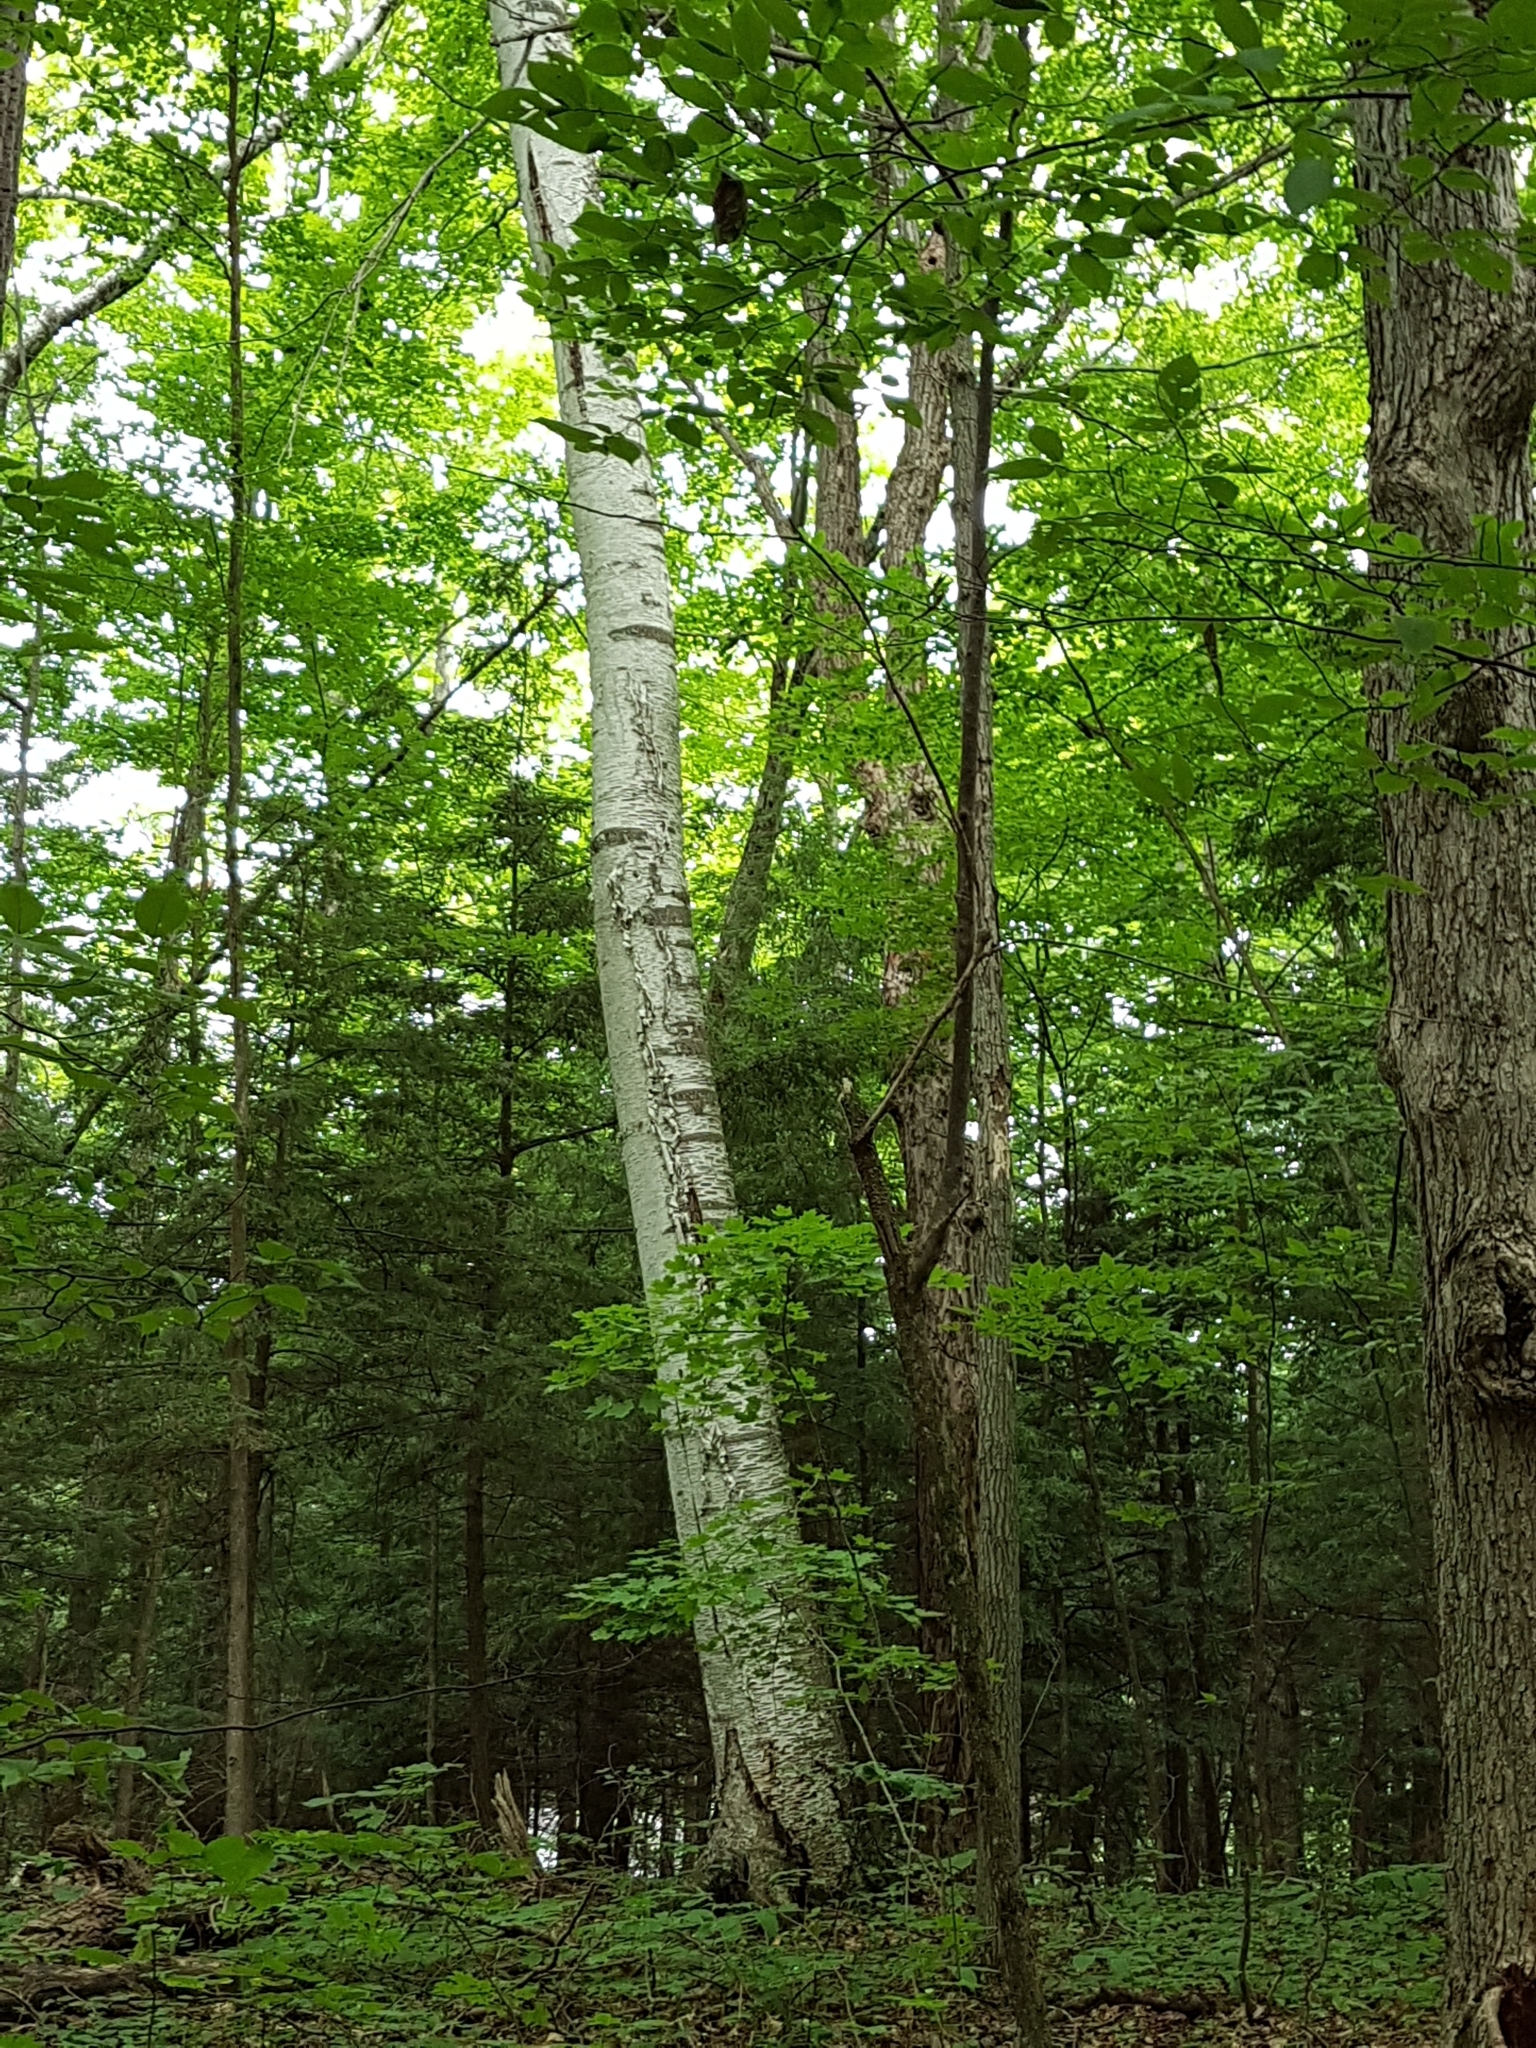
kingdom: Plantae
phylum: Tracheophyta
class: Magnoliopsida
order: Fagales
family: Betulaceae
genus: Betula
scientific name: Betula papyrifera
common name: Paper birch
